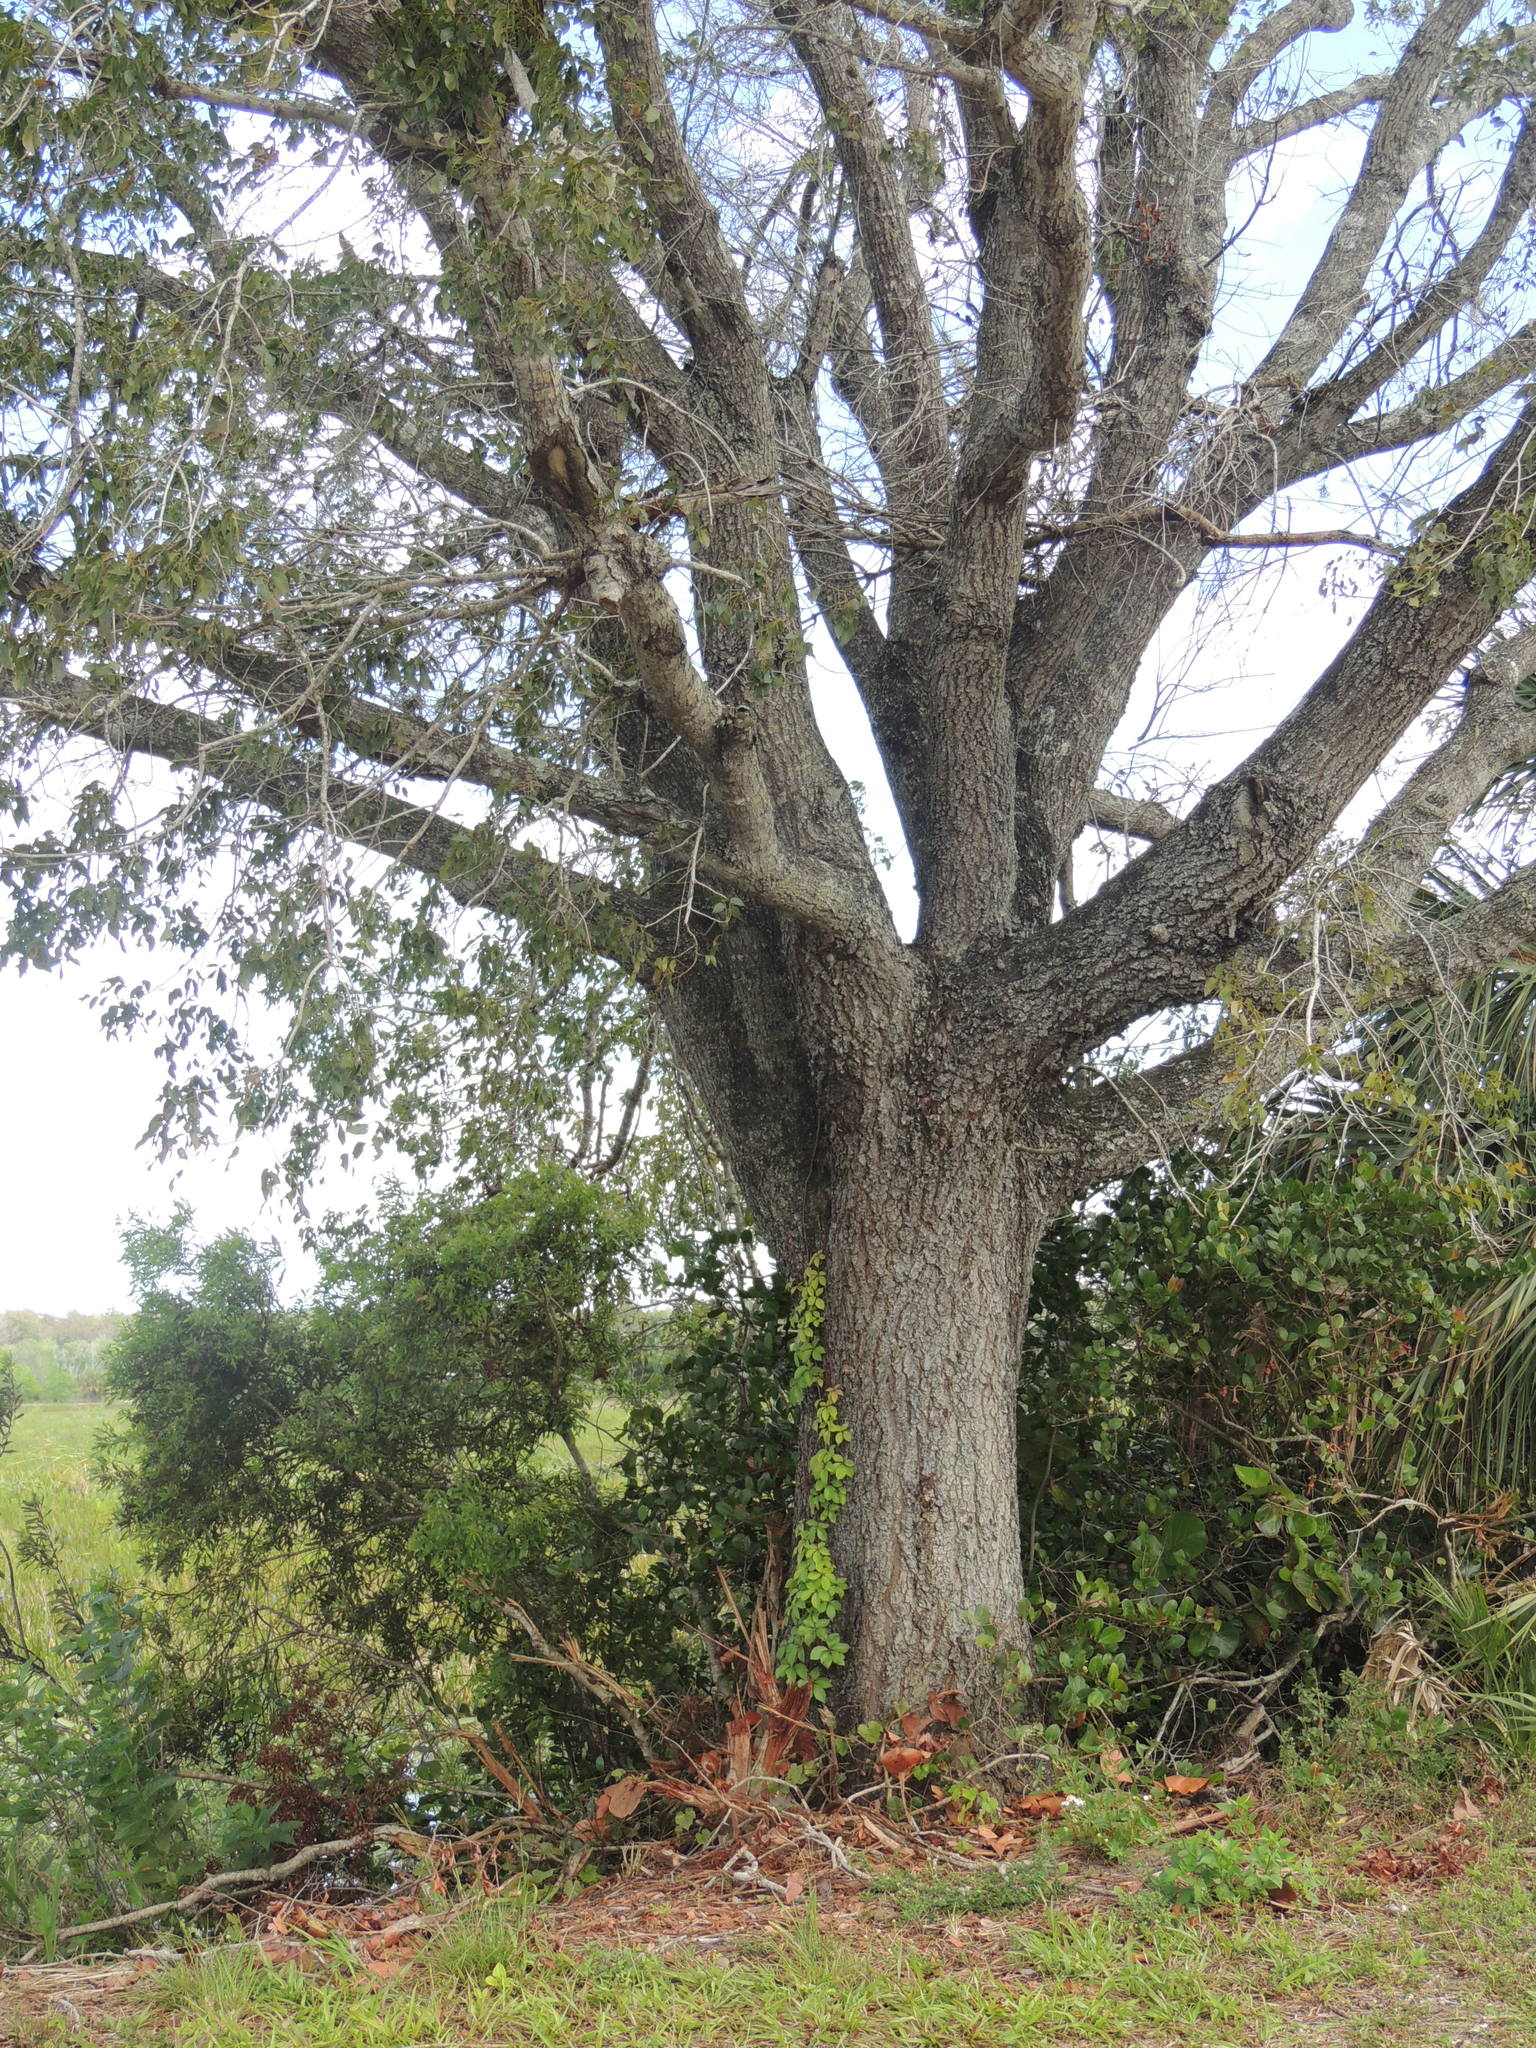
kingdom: Plantae
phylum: Tracheophyta
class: Magnoliopsida
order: Sapindales
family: Meliaceae
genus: Swietenia
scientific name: Swietenia mahagoni
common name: West indian mahogany
